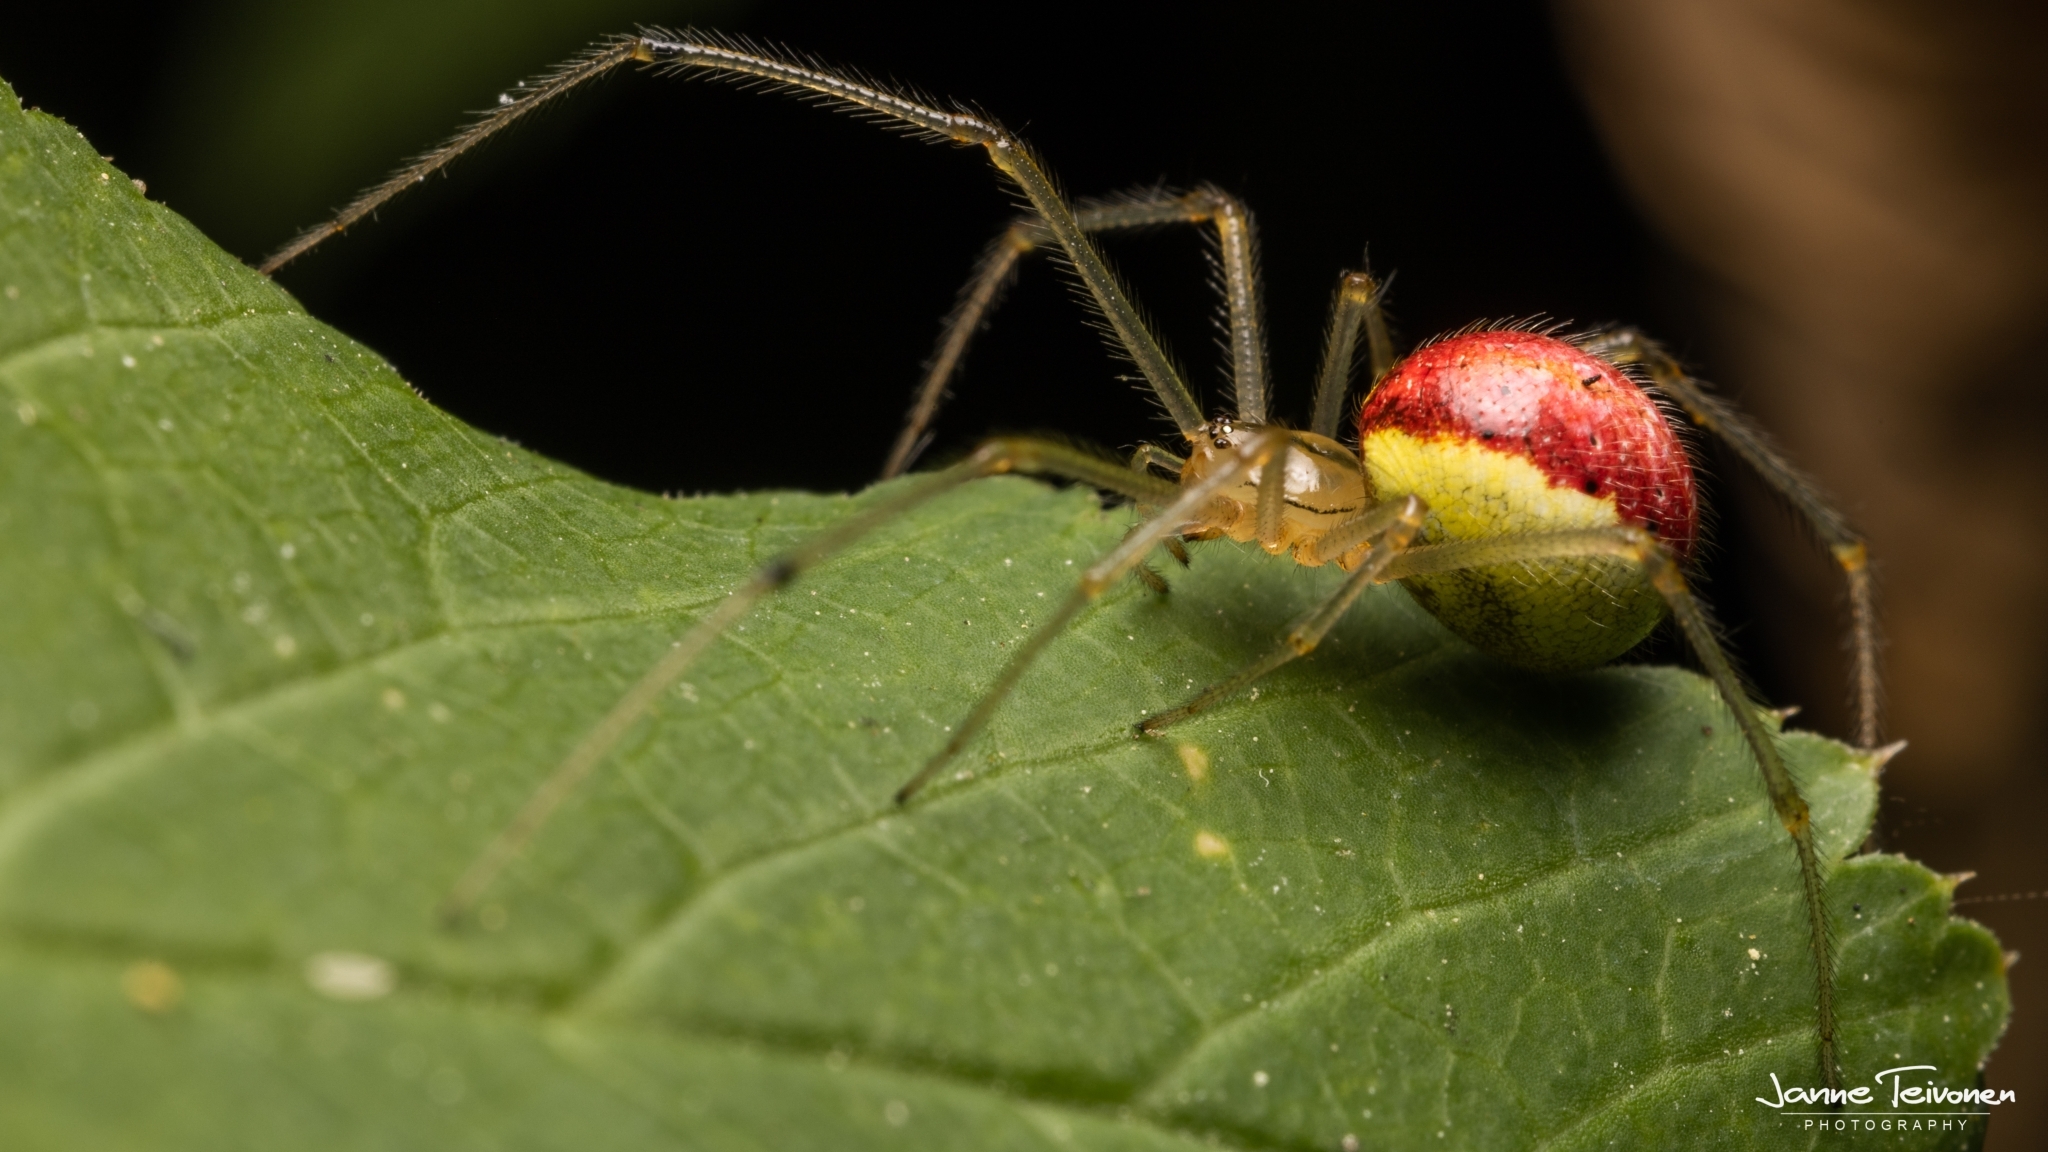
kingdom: Animalia
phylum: Arthropoda
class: Arachnida
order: Araneae
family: Theridiidae
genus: Enoplognatha
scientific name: Enoplognatha ovata
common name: Common candy-striped spider
